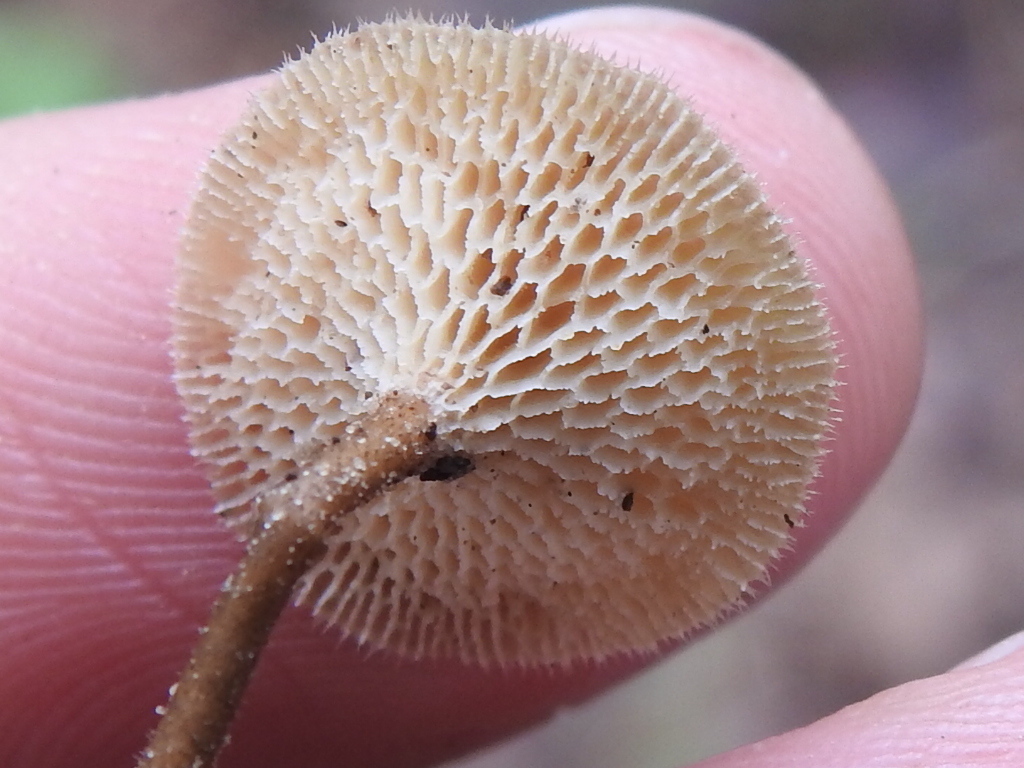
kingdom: Fungi
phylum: Basidiomycota
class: Agaricomycetes
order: Polyporales
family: Polyporaceae
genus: Lentinus
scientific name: Lentinus arcularius
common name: Spring polypore
